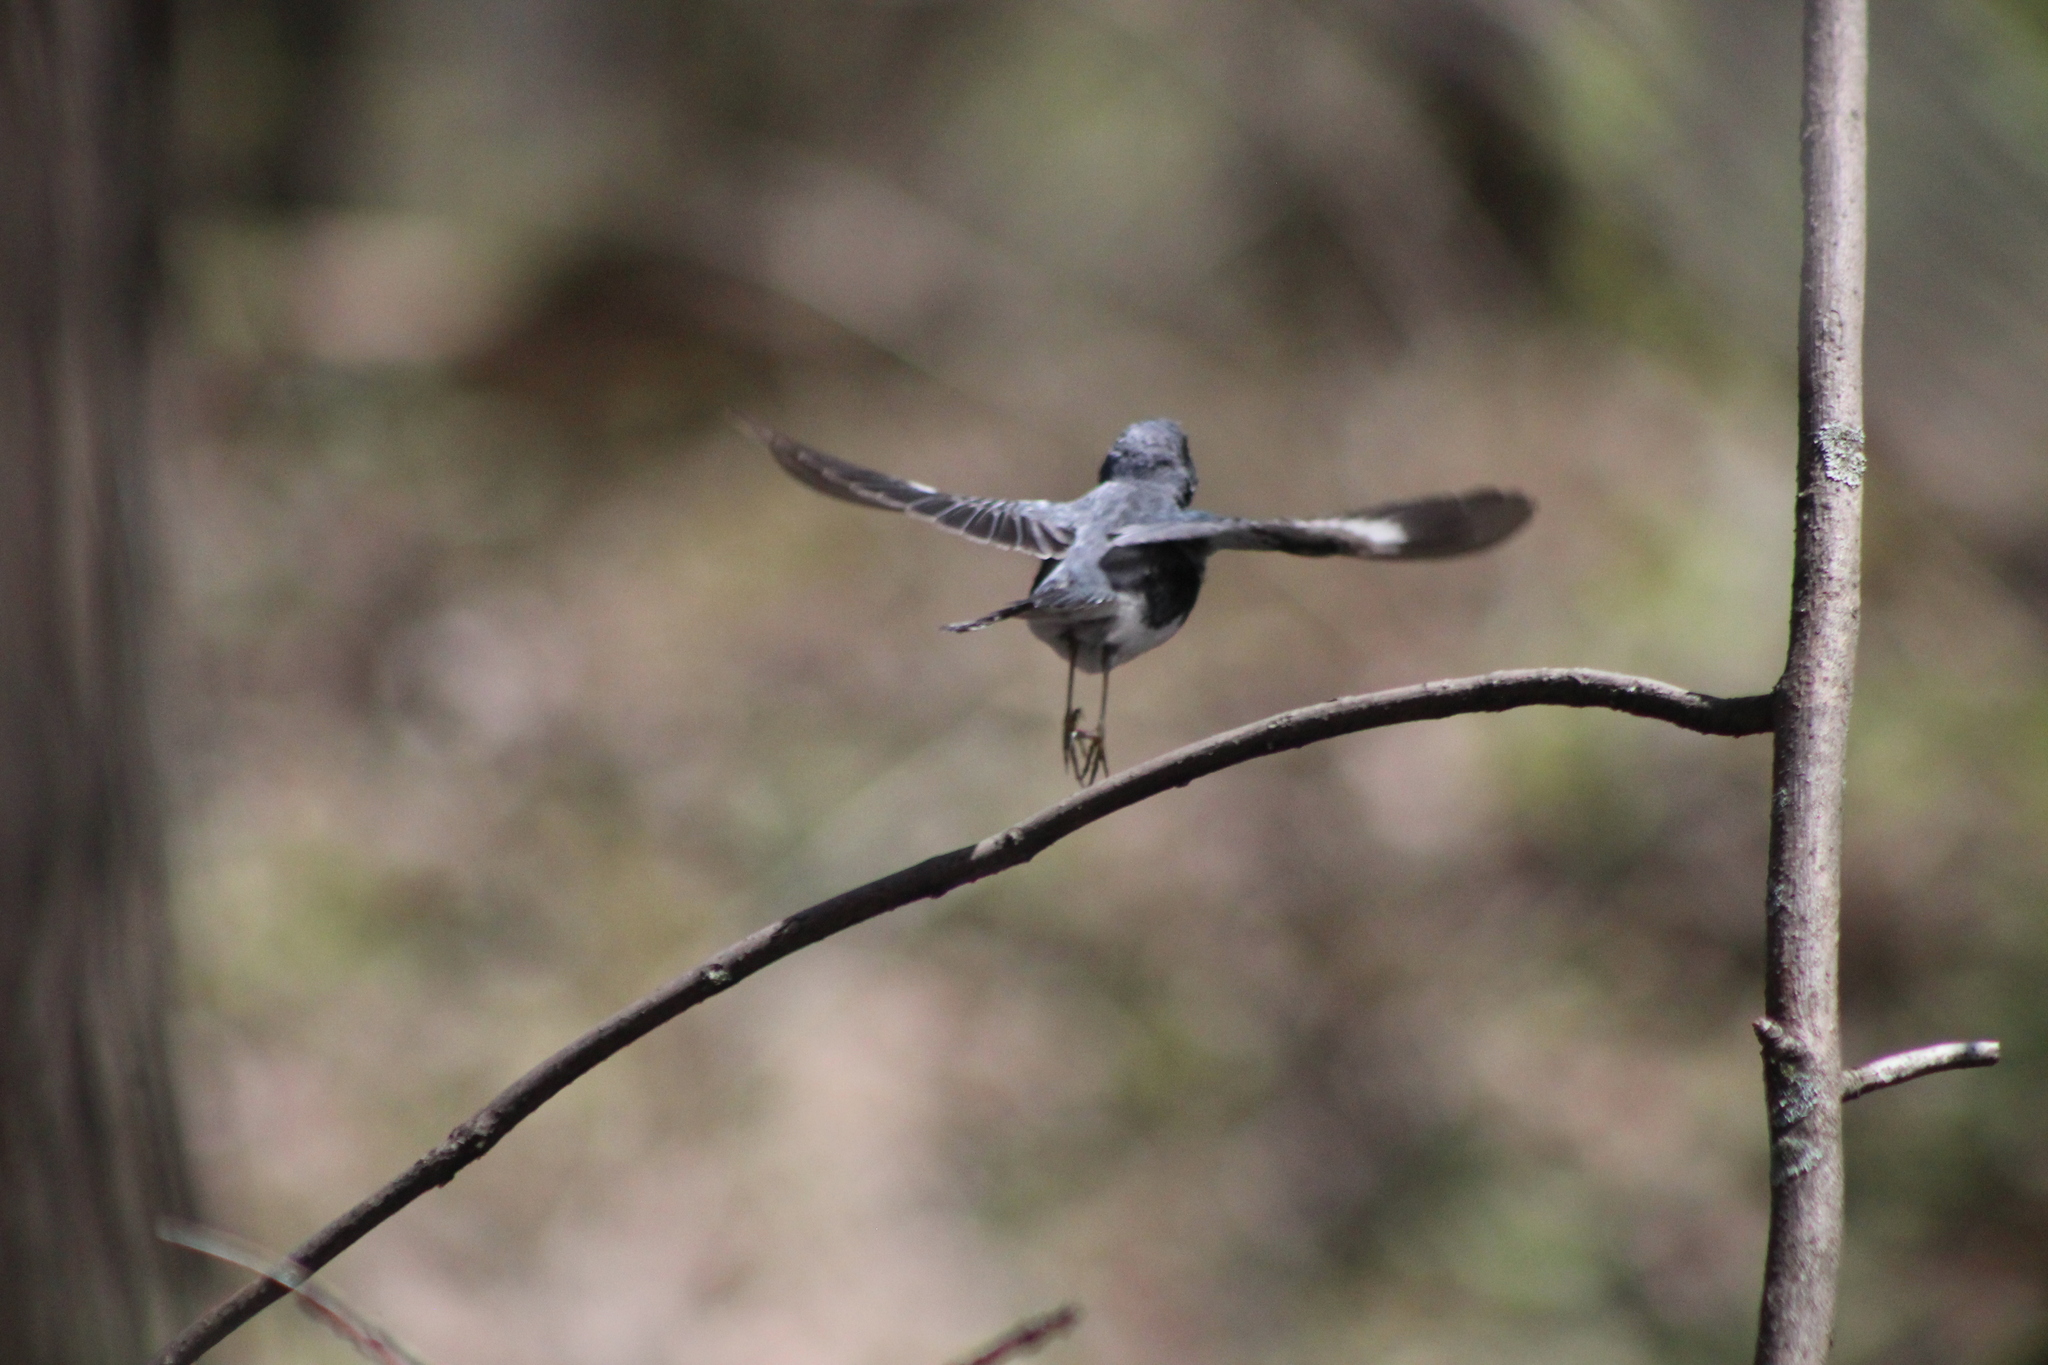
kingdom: Animalia
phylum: Chordata
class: Aves
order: Passeriformes
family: Parulidae
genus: Setophaga
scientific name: Setophaga caerulescens
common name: Black-throated blue warbler
